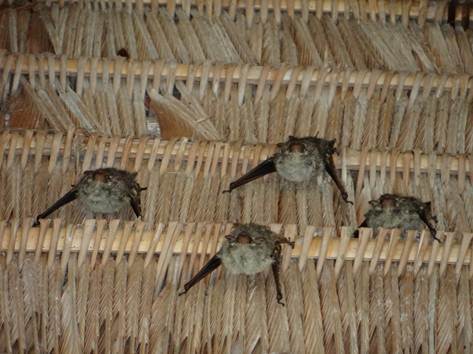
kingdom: Animalia
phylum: Chordata
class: Mammalia
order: Chiroptera
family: Emballonuridae
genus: Rhynchonycteris
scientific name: Rhynchonycteris naso
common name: Proboscis bat
